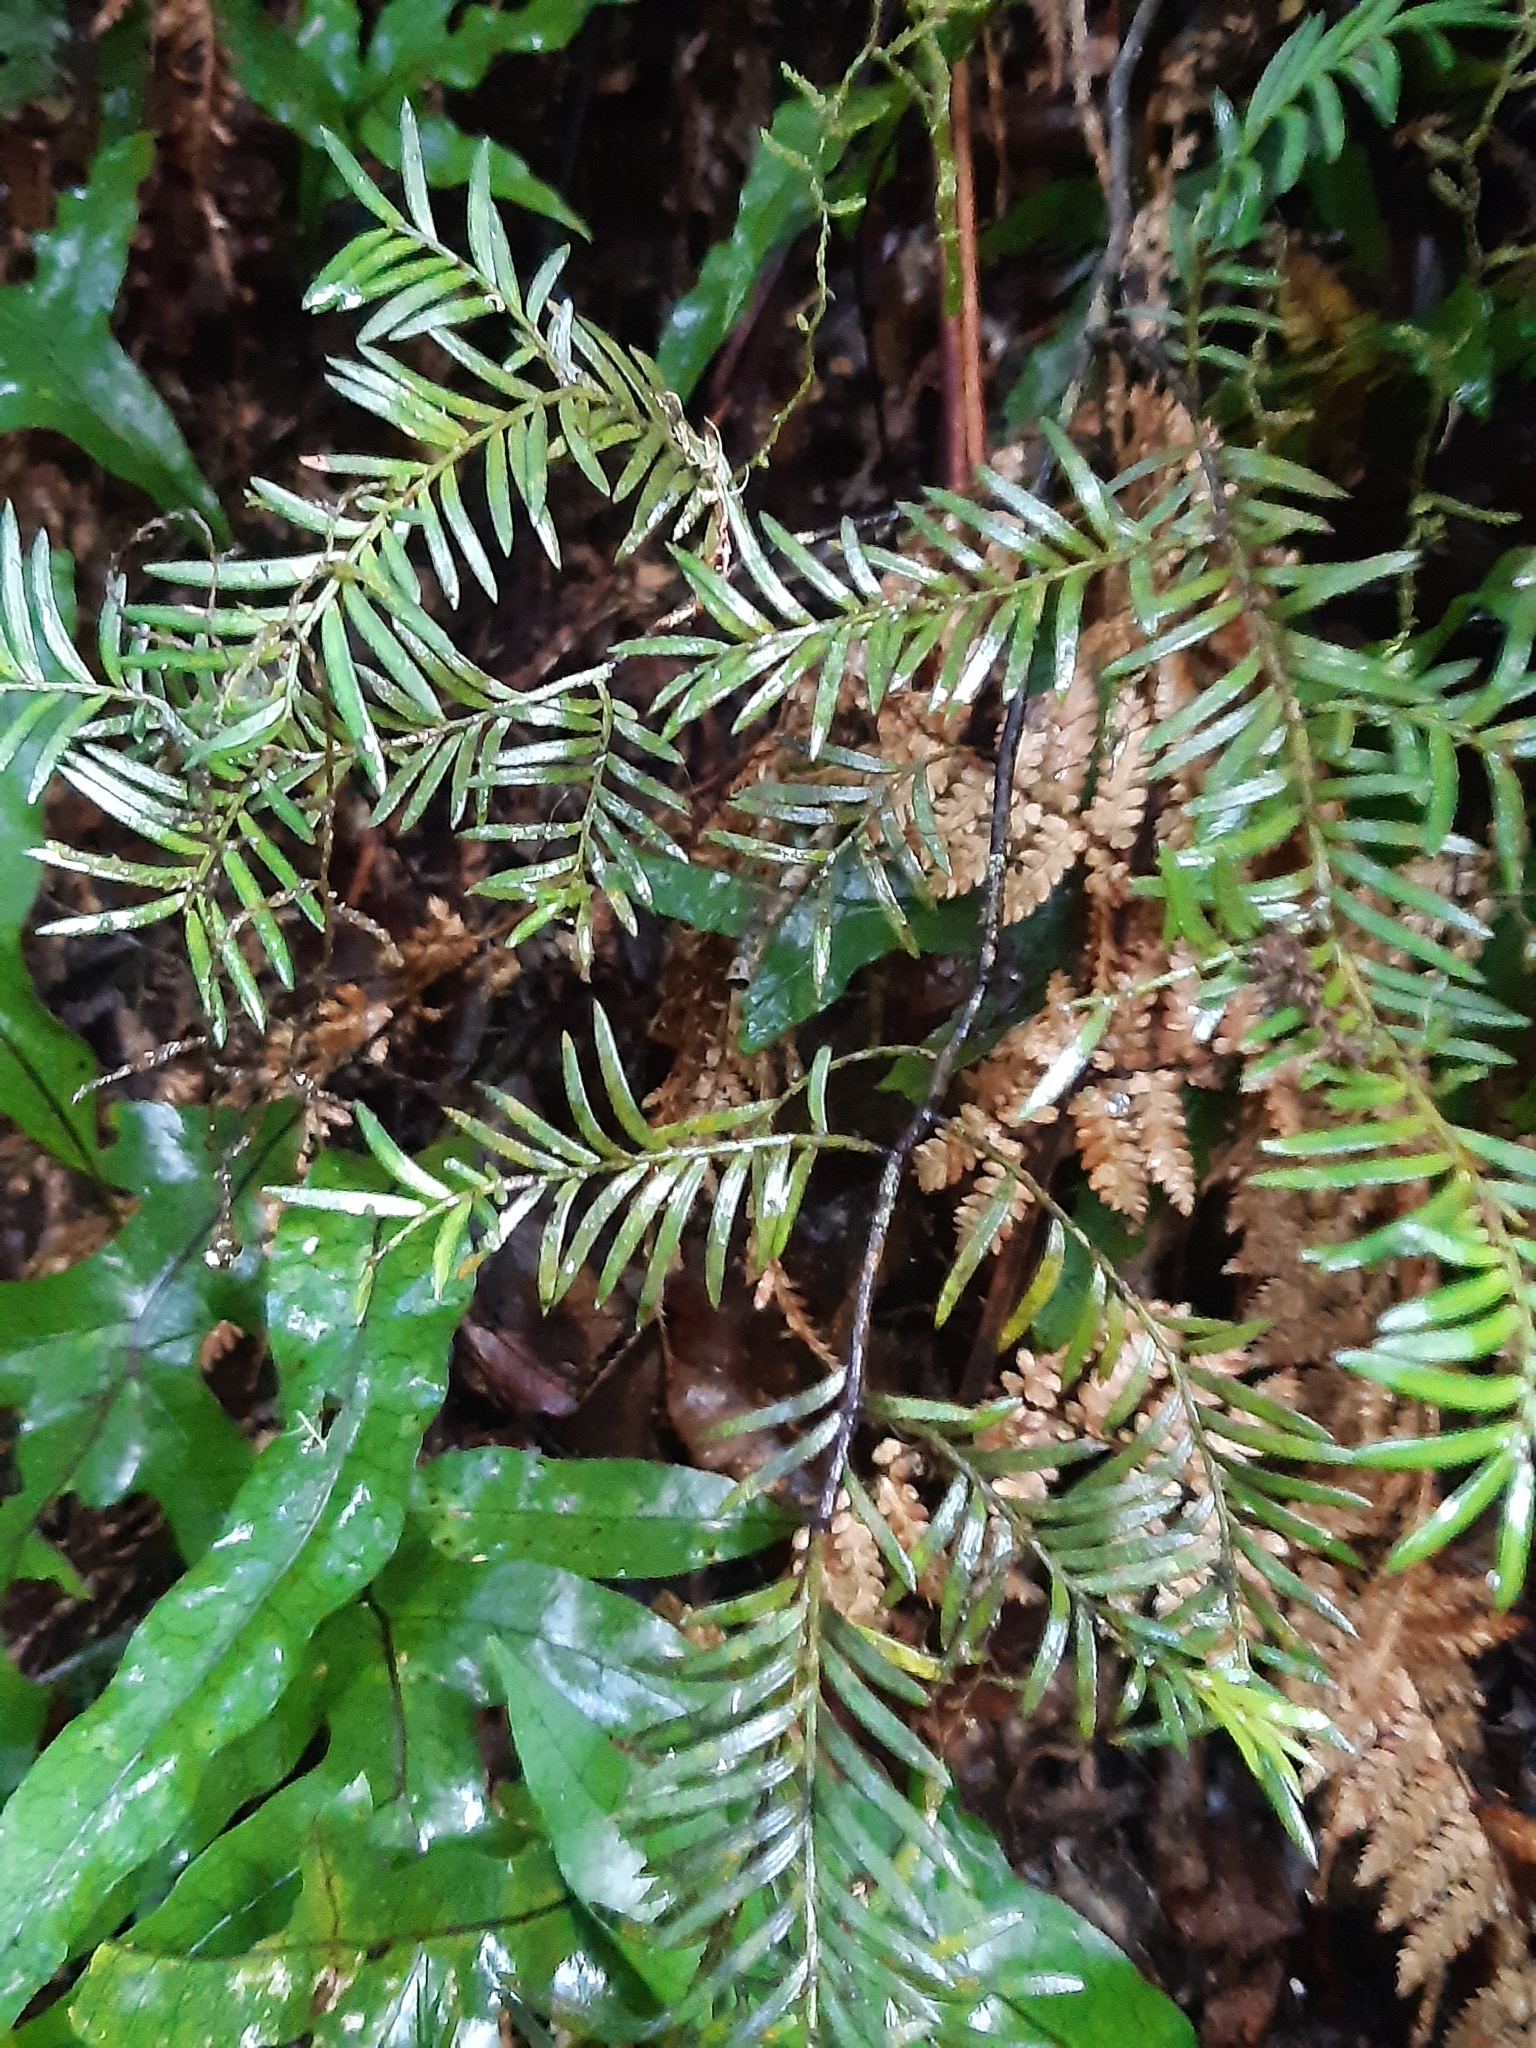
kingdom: Plantae
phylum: Tracheophyta
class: Pinopsida
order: Pinales
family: Podocarpaceae
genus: Prumnopitys
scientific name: Prumnopitys ferruginea
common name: Brown pine
